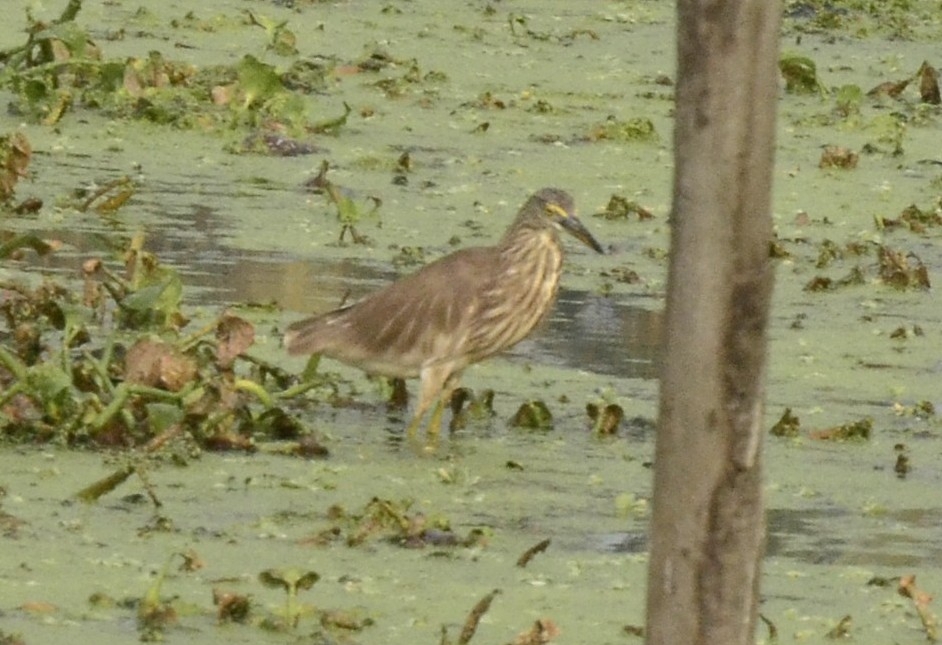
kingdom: Animalia
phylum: Chordata
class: Aves
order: Pelecaniformes
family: Ardeidae
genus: Ardeola
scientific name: Ardeola grayii
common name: Indian pond heron
